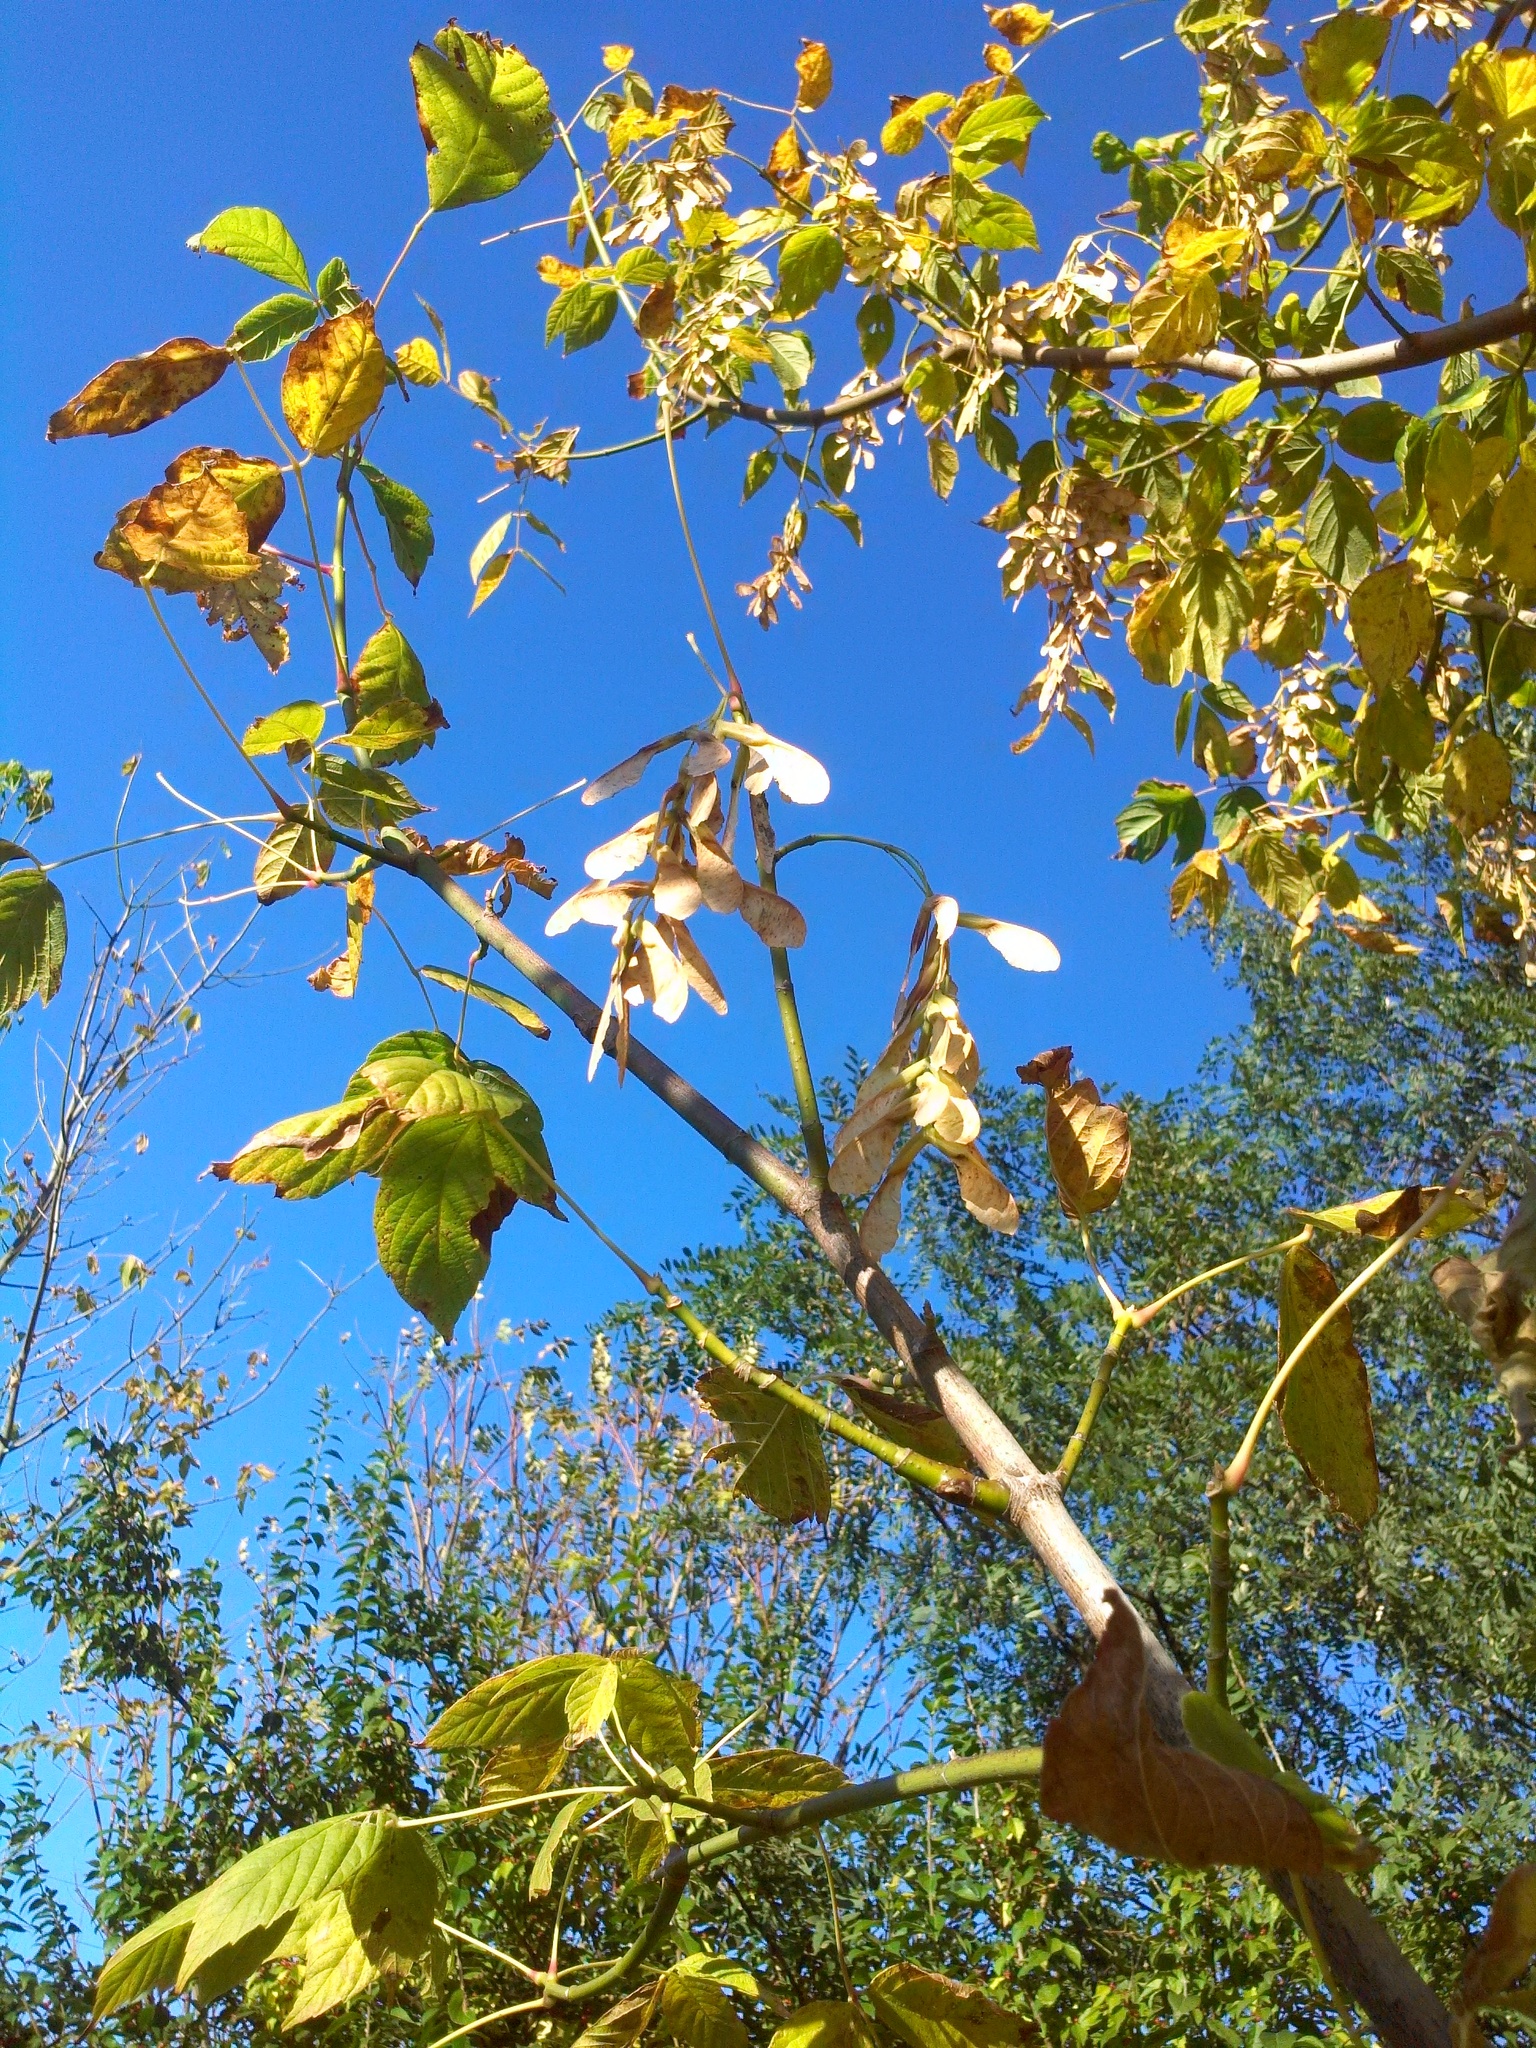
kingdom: Plantae
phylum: Tracheophyta
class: Magnoliopsida
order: Sapindales
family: Sapindaceae
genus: Acer
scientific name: Acer negundo
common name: Ashleaf maple
